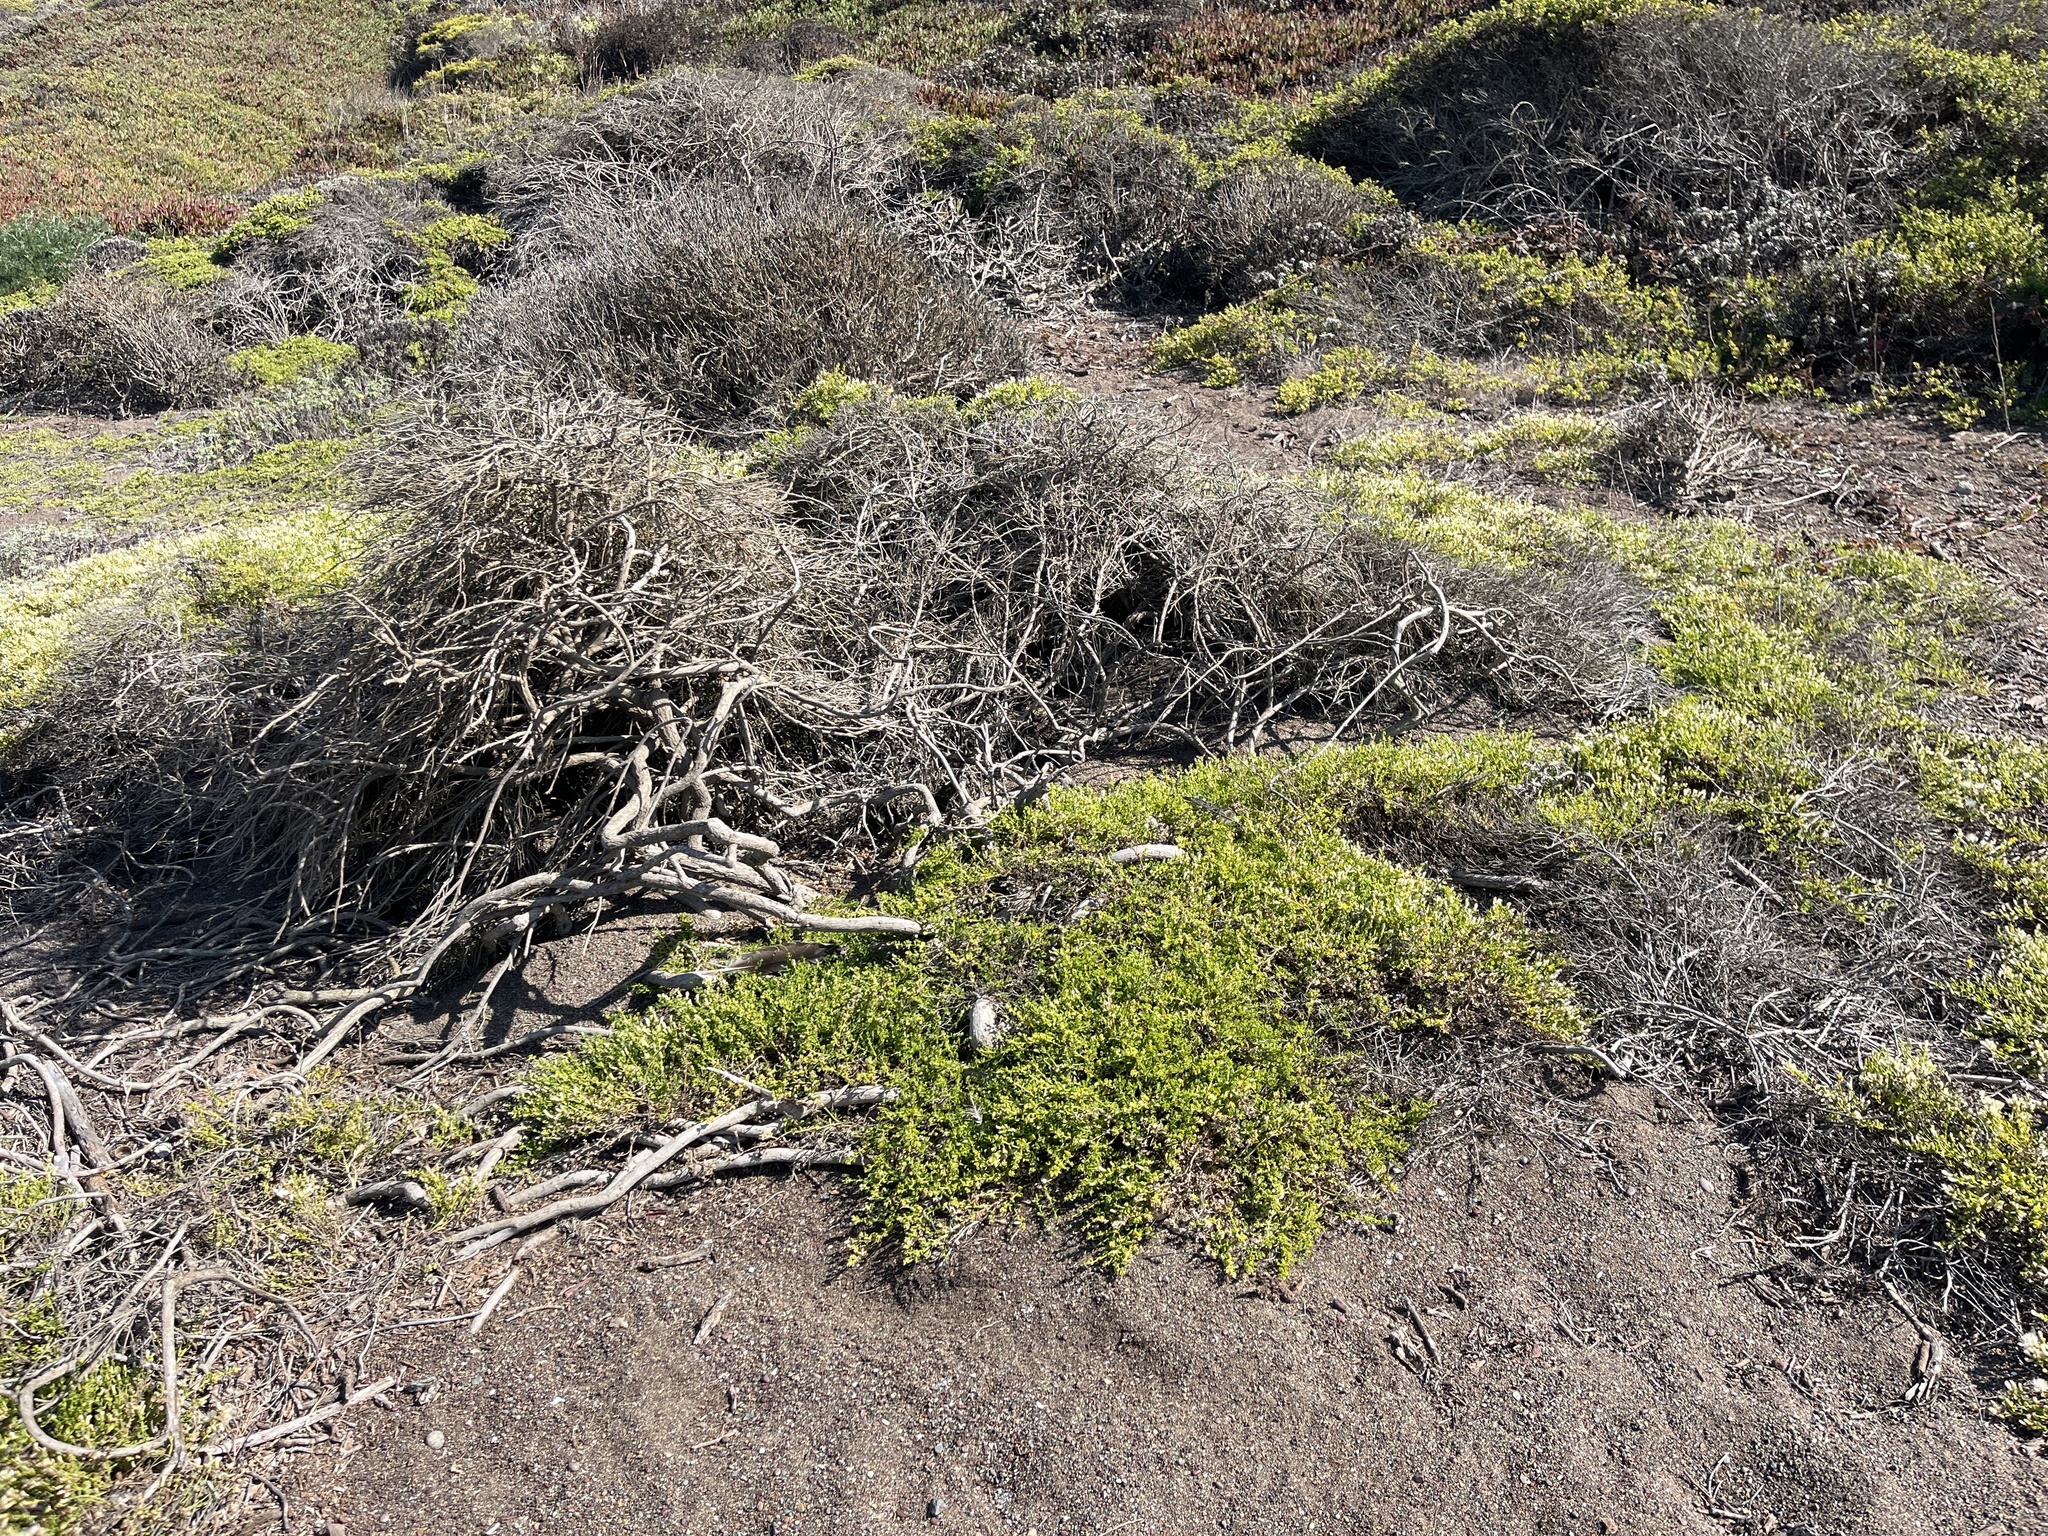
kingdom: Plantae
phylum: Tracheophyta
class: Magnoliopsida
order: Asterales
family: Asteraceae
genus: Baccharis
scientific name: Baccharis pilularis
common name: Coyotebrush
